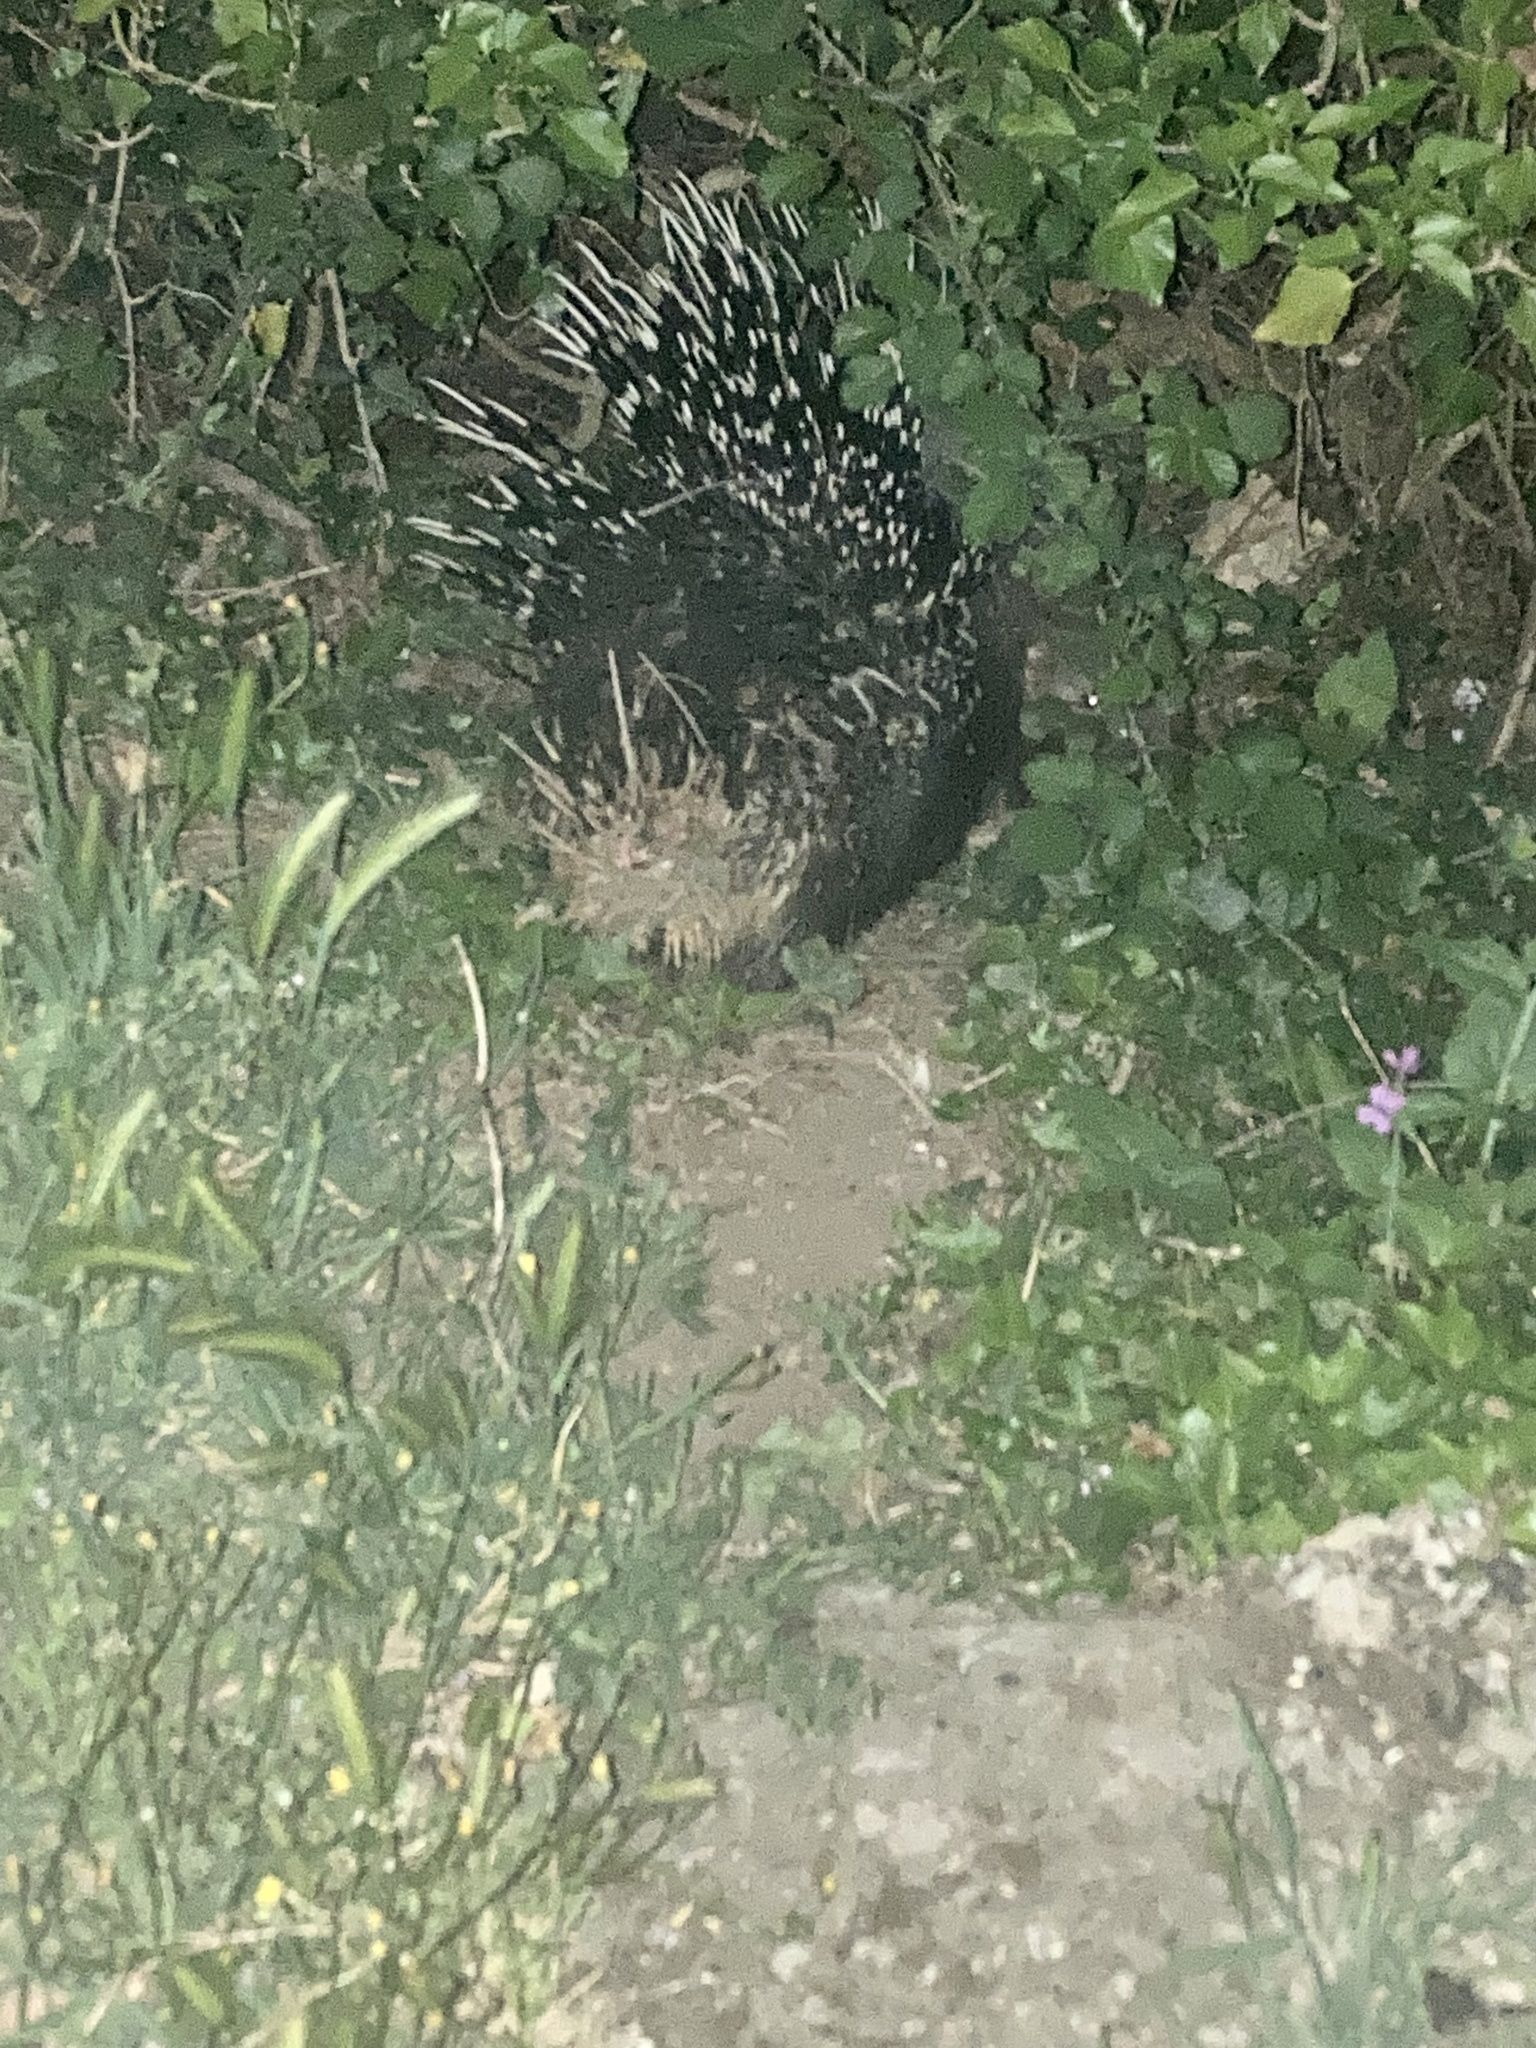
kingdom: Animalia
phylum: Chordata
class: Mammalia
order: Rodentia
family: Hystricidae
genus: Hystrix
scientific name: Hystrix cristata
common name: Crested porcupine
